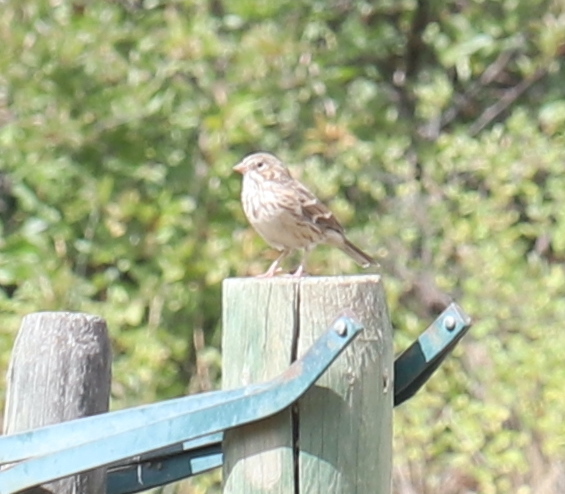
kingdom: Animalia
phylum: Chordata
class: Aves
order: Passeriformes
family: Passerellidae
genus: Pooecetes
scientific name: Pooecetes gramineus
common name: Vesper sparrow
